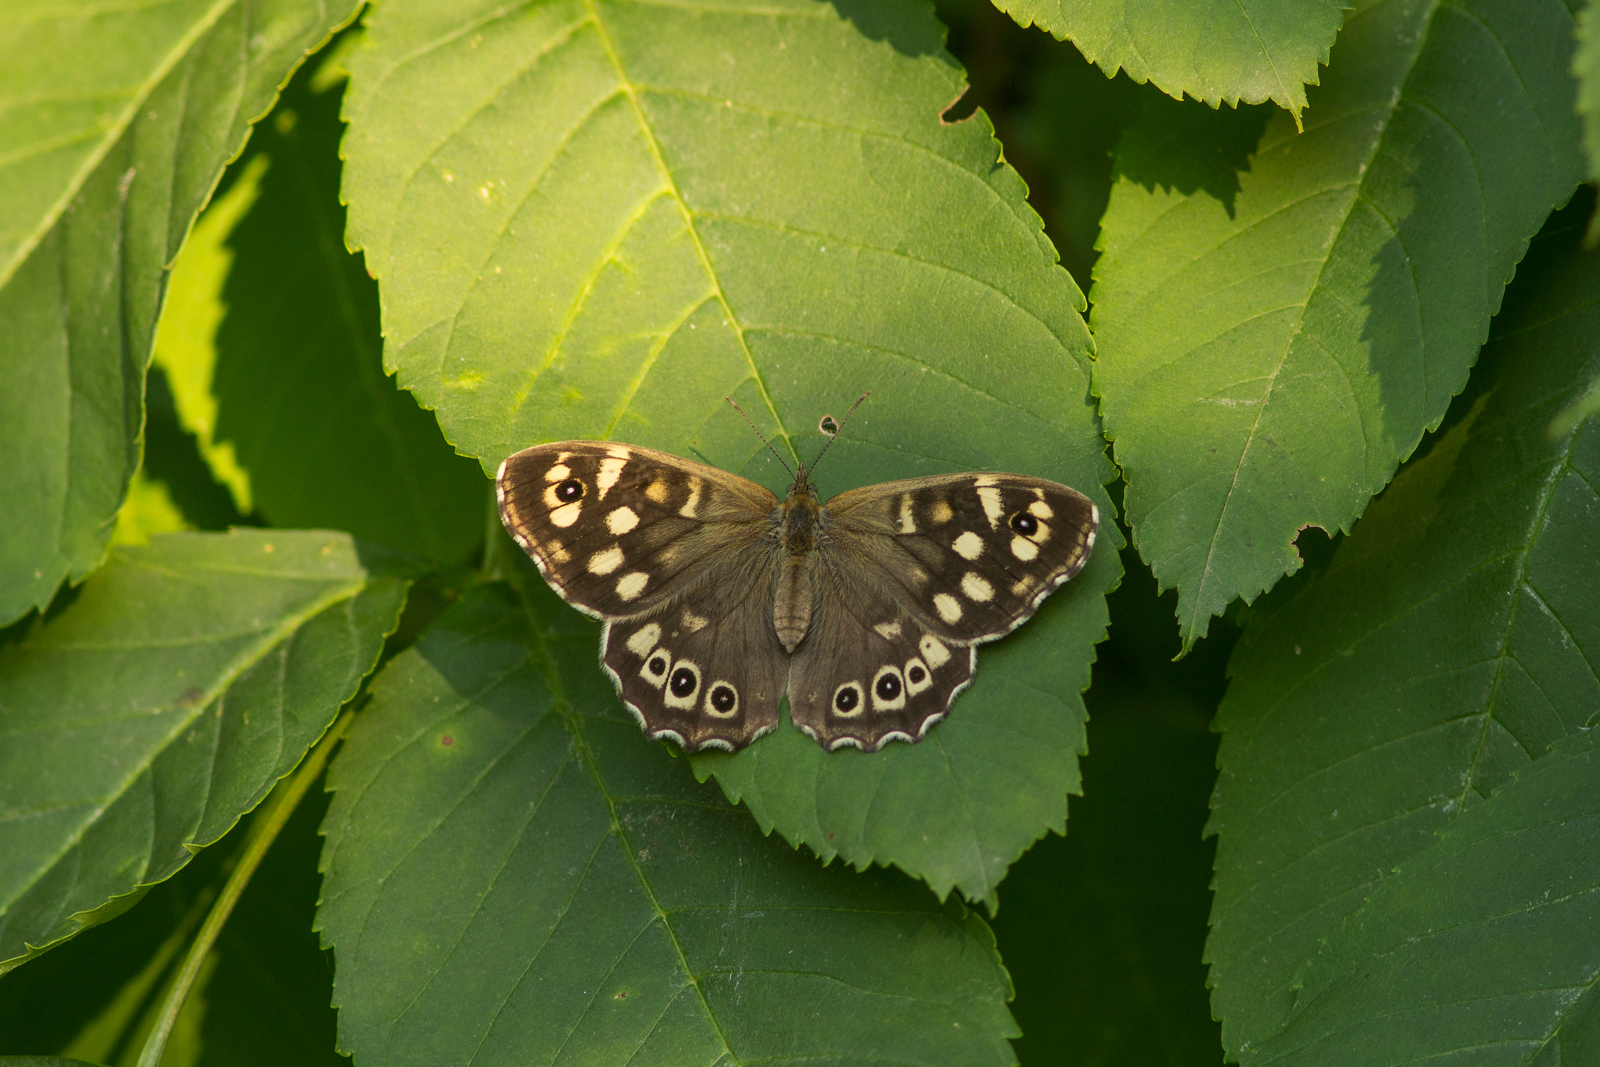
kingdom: Animalia
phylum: Arthropoda
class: Insecta
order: Lepidoptera
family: Nymphalidae
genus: Pararge
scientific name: Pararge aegeria
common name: Speckled wood
